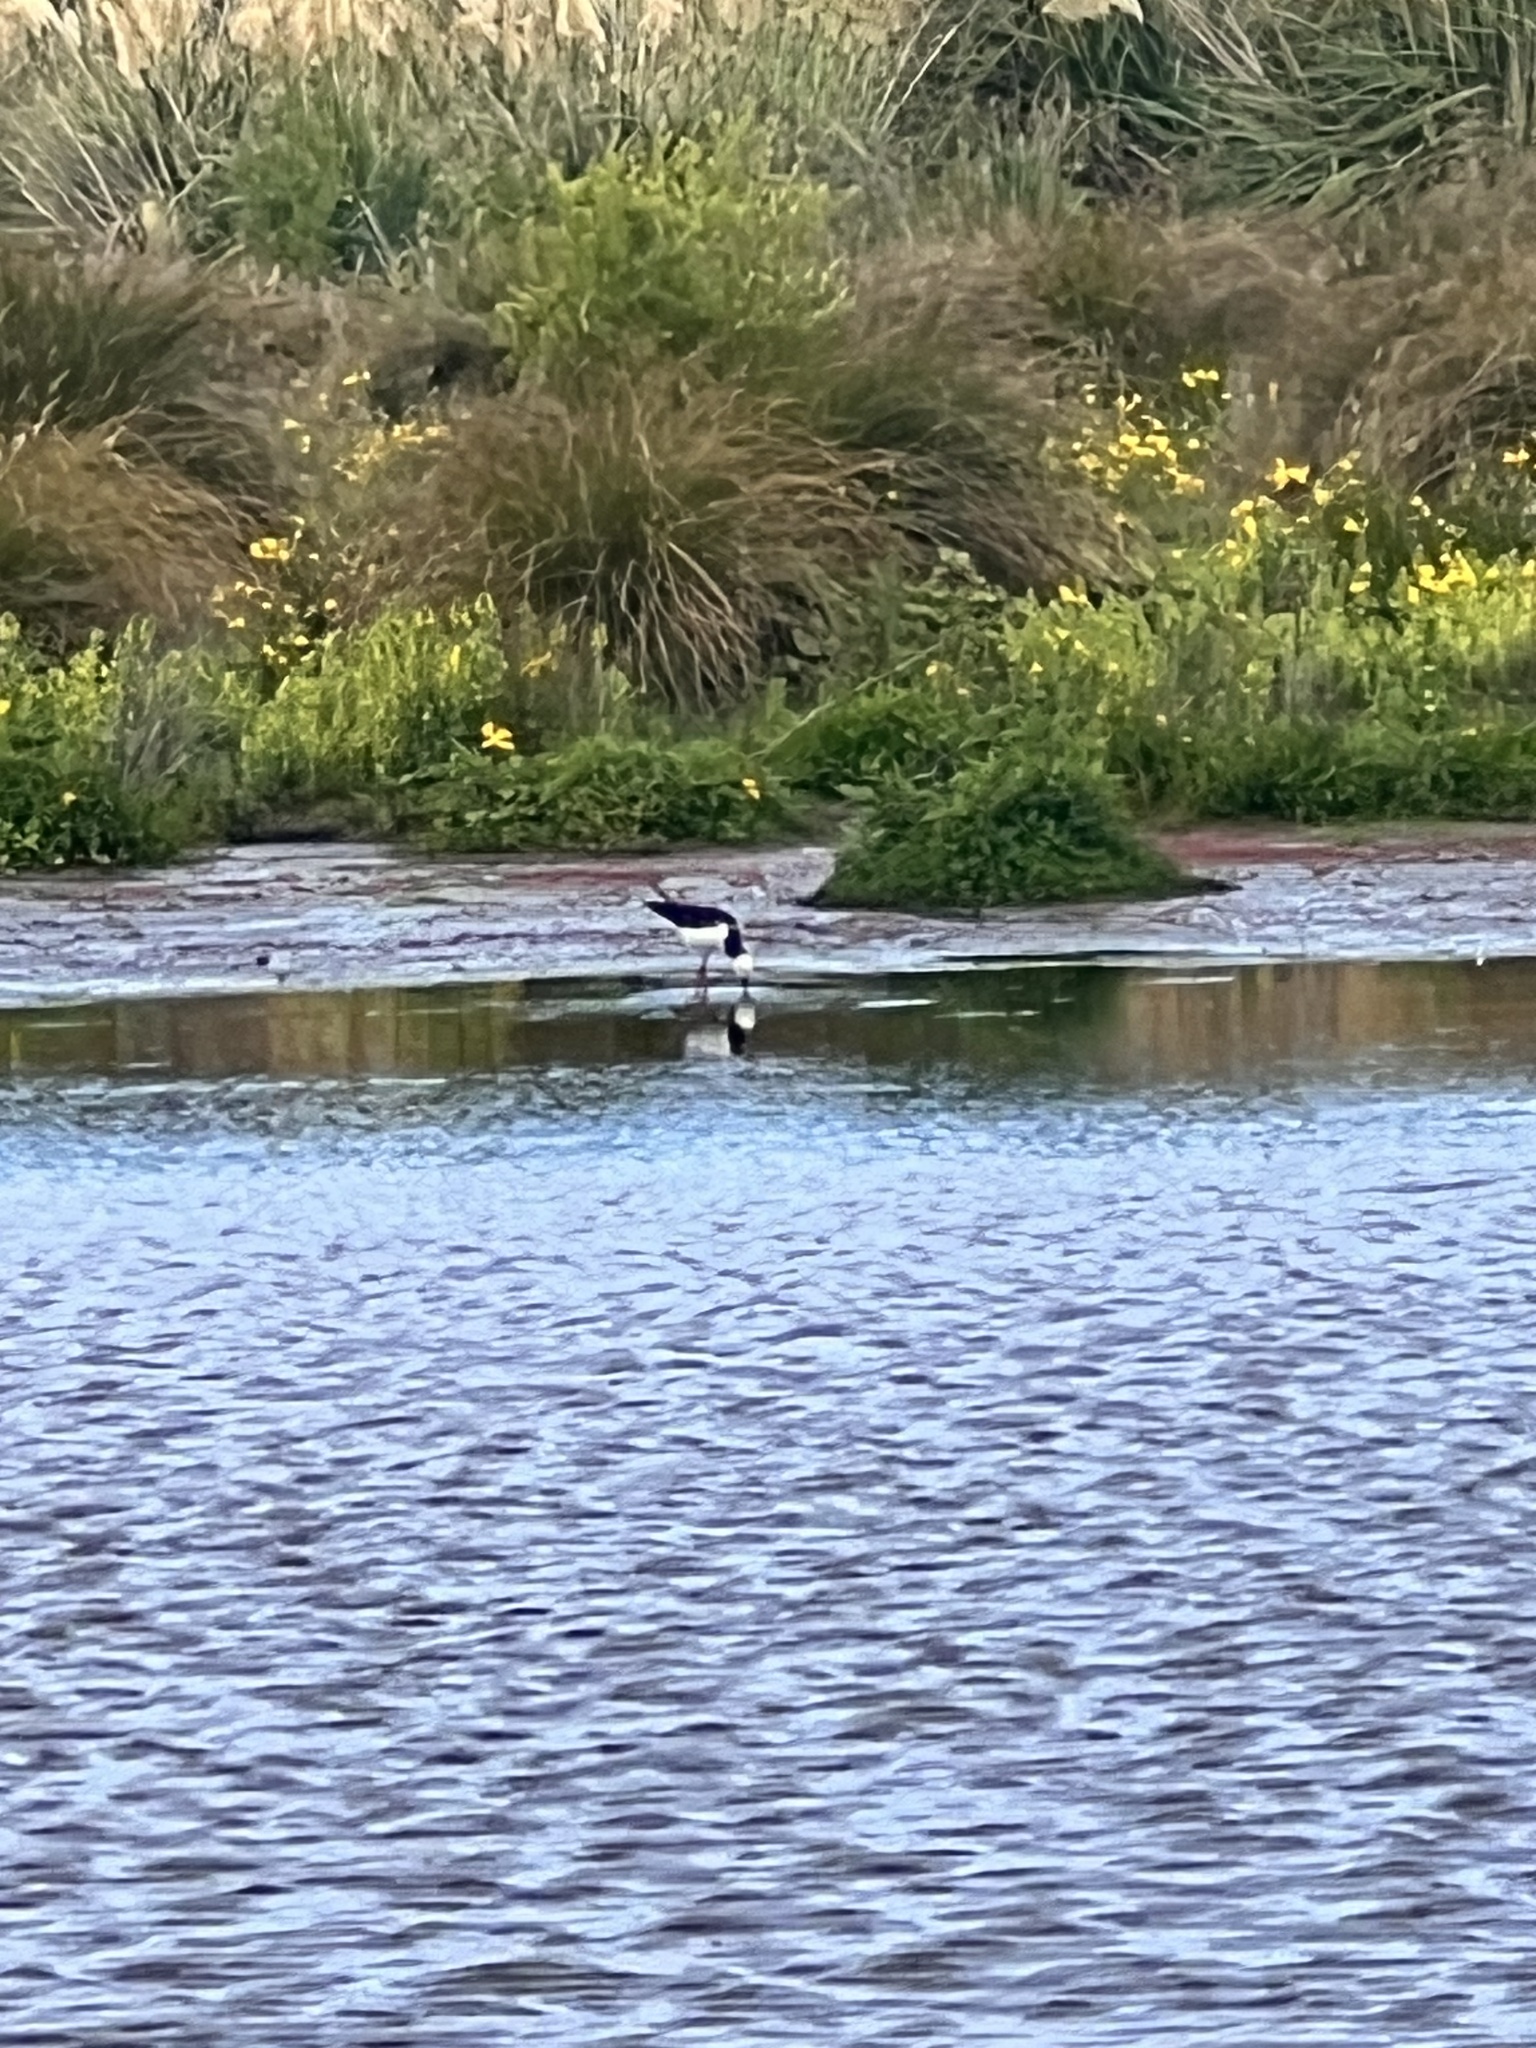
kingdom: Animalia
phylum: Chordata
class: Aves
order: Charadriiformes
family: Recurvirostridae
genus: Himantopus
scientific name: Himantopus leucocephalus
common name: White-headed stilt
